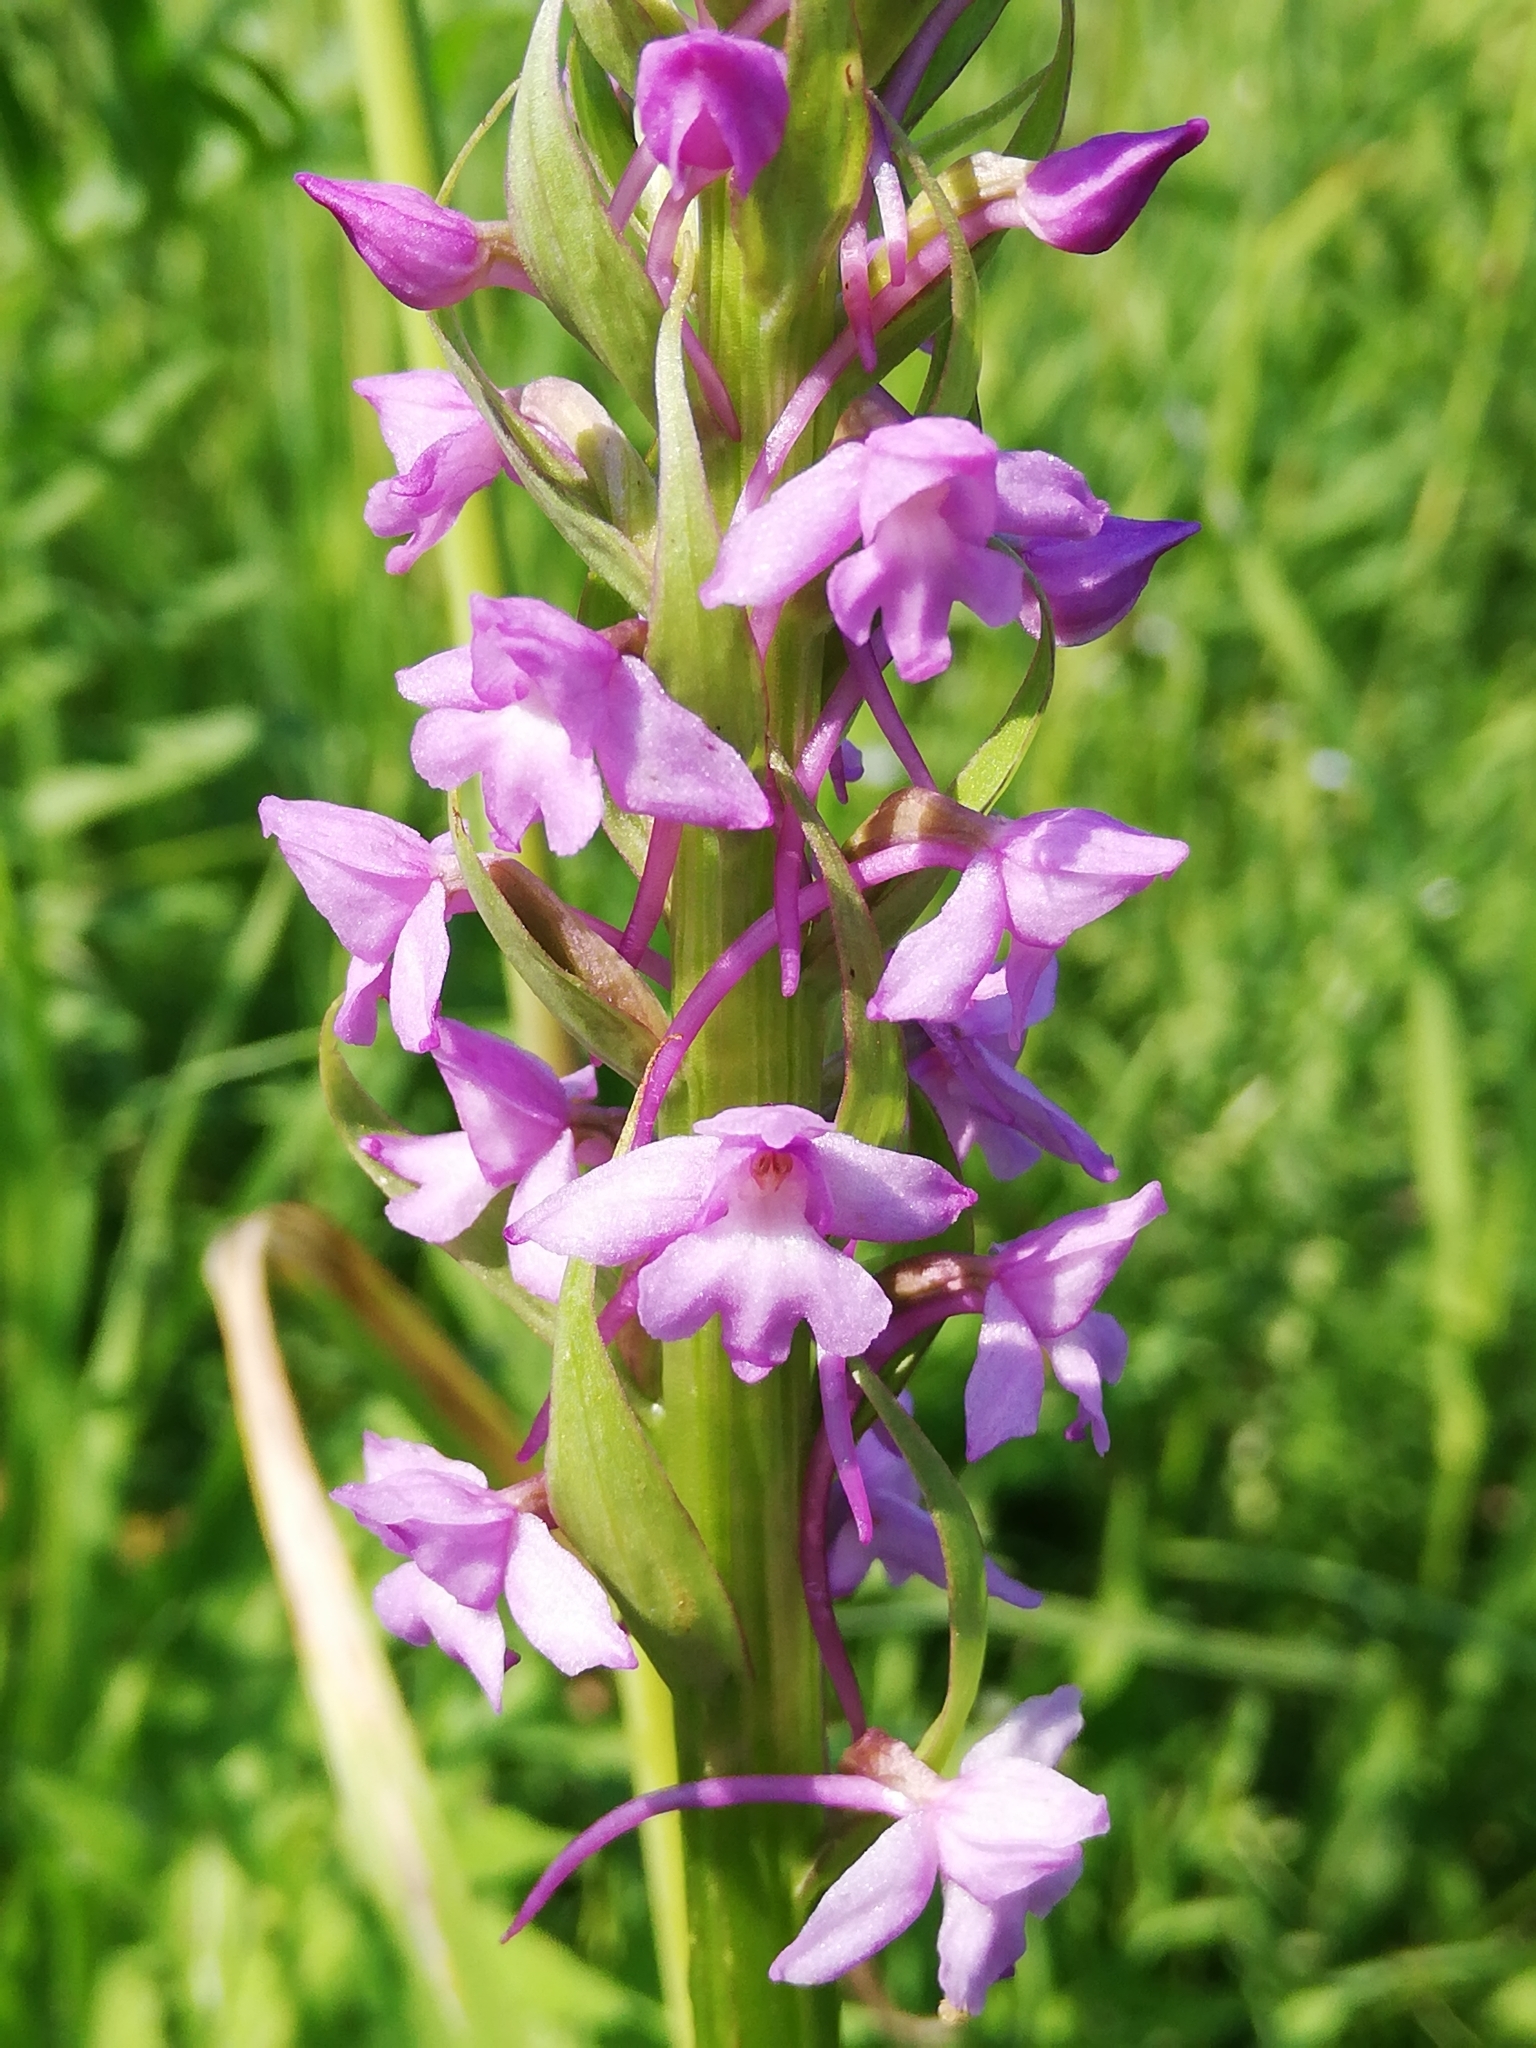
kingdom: Plantae
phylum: Tracheophyta
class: Liliopsida
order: Asparagales
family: Orchidaceae
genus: Gymnadenia
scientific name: Gymnadenia conopsea
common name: Fragrant orchid
